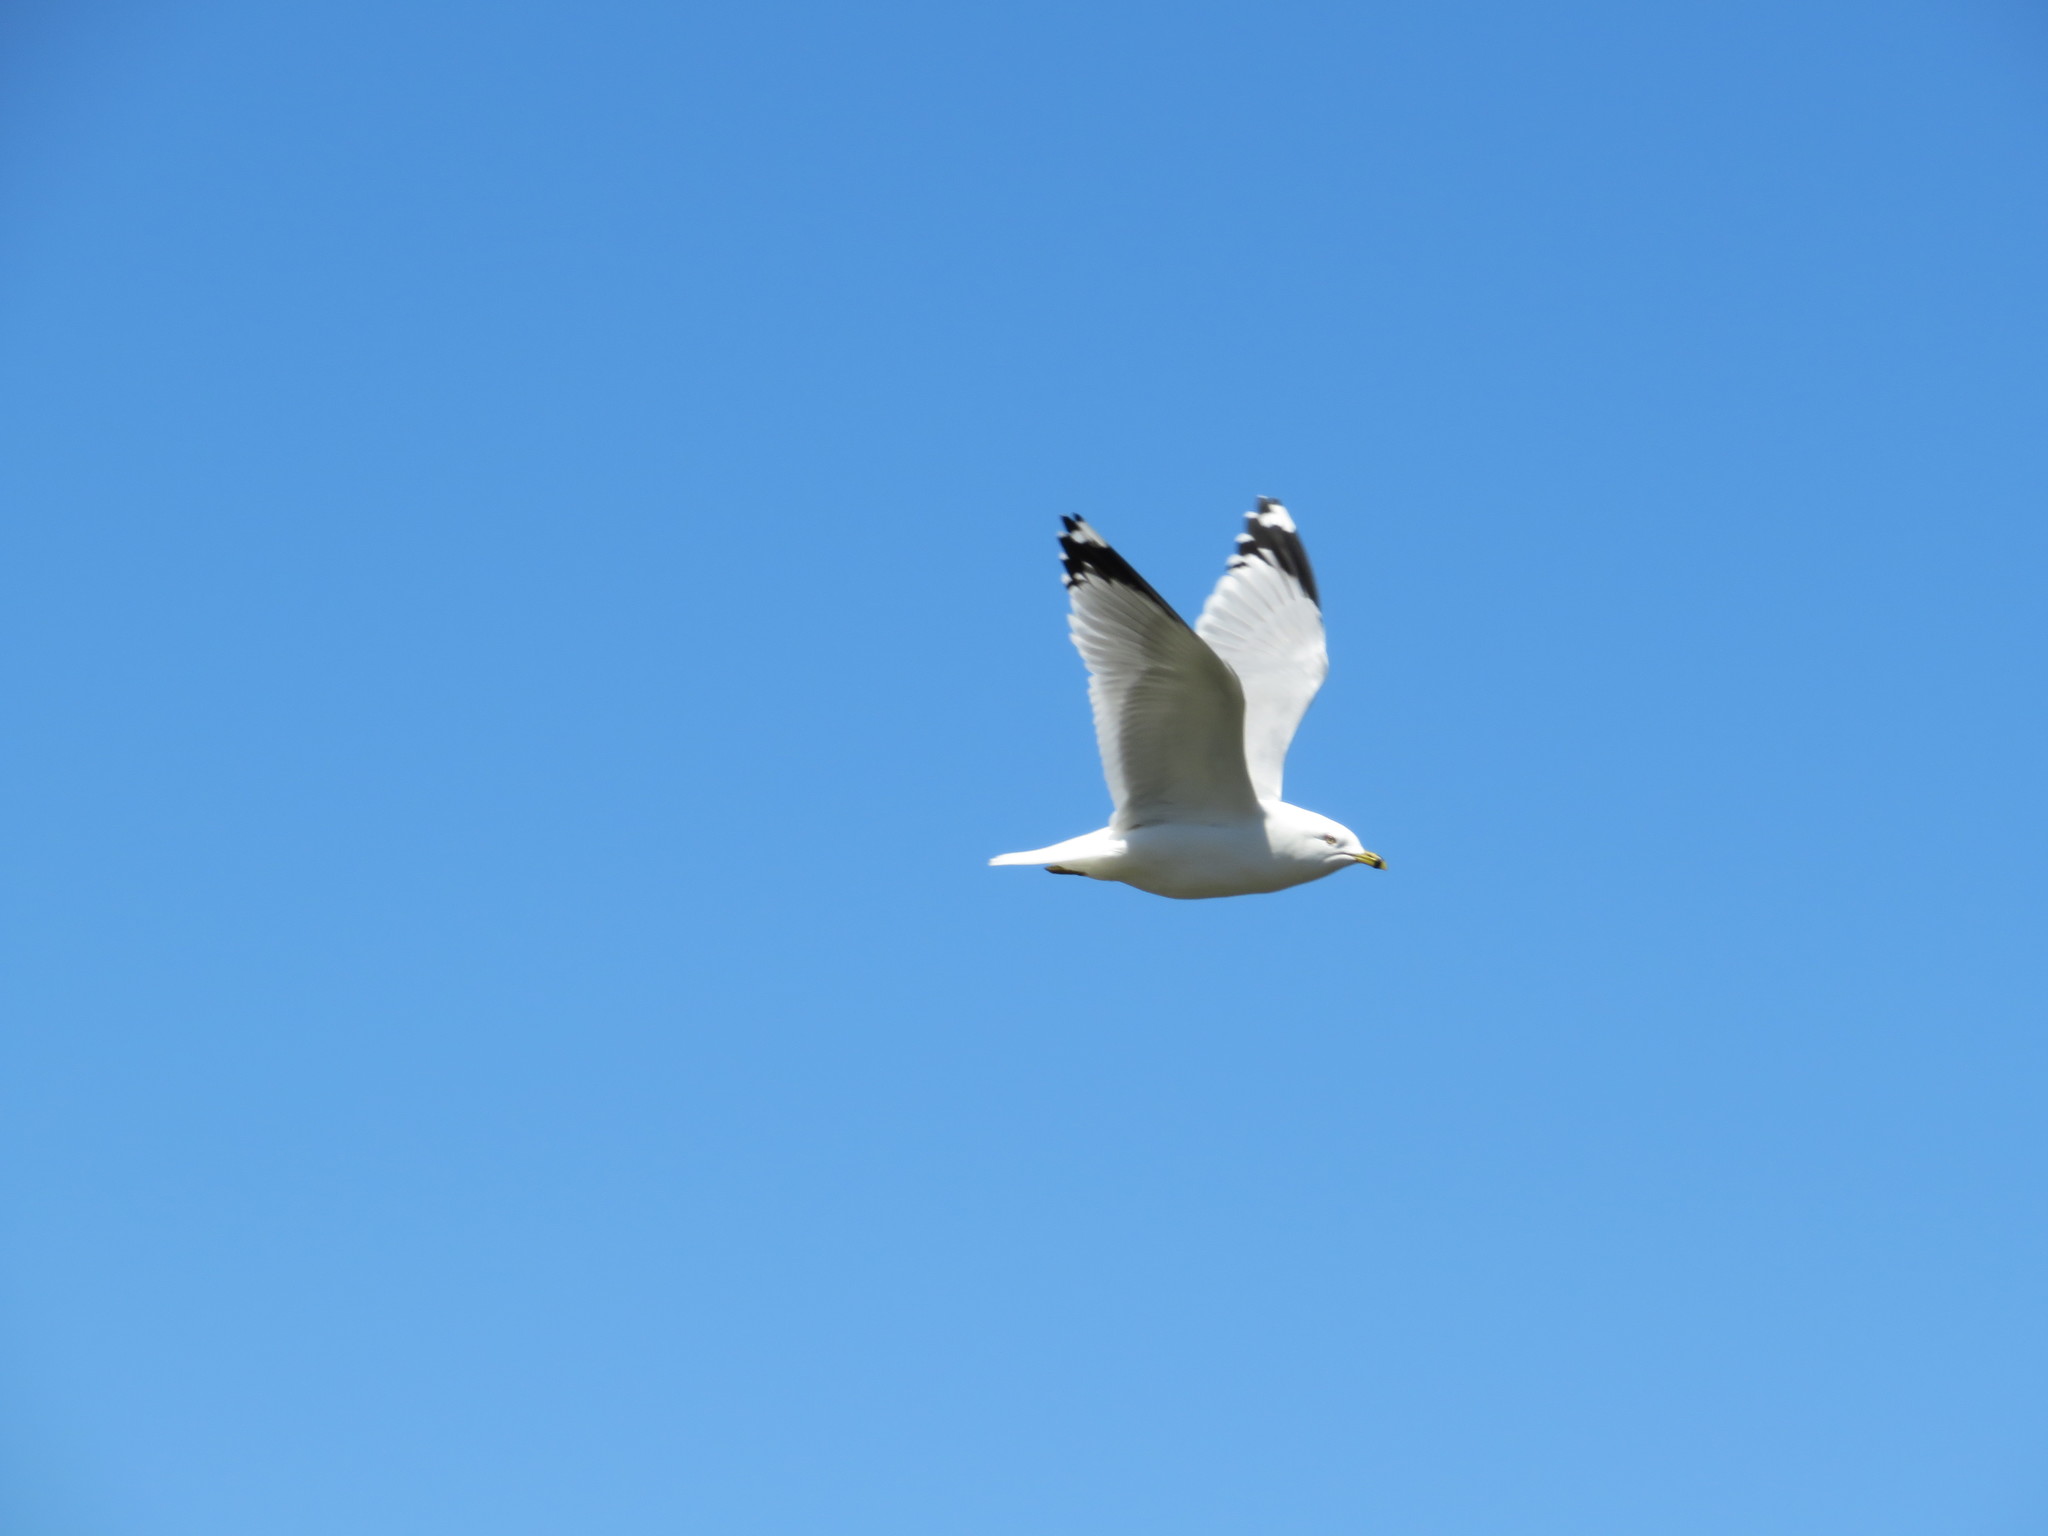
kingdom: Animalia
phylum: Chordata
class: Aves
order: Charadriiformes
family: Laridae
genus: Larus
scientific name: Larus delawarensis
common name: Ring-billed gull
